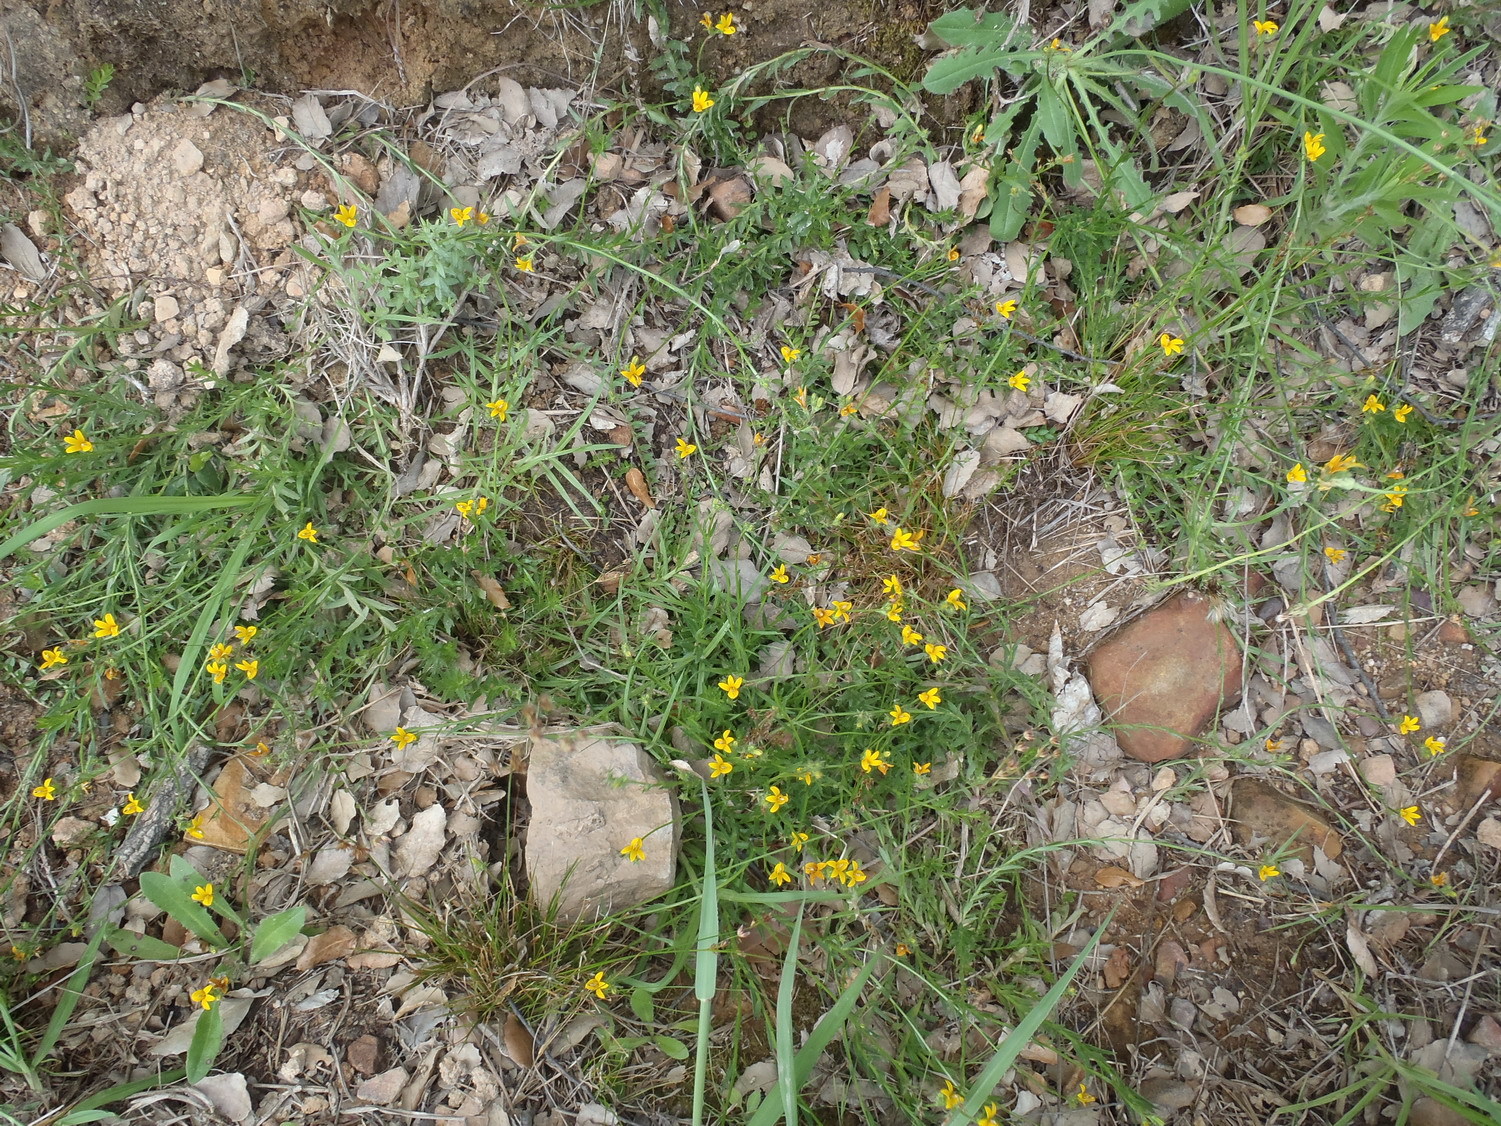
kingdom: Plantae
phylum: Tracheophyta
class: Magnoliopsida
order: Asterales
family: Campanulaceae
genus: Monopsis
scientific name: Monopsis lutea
